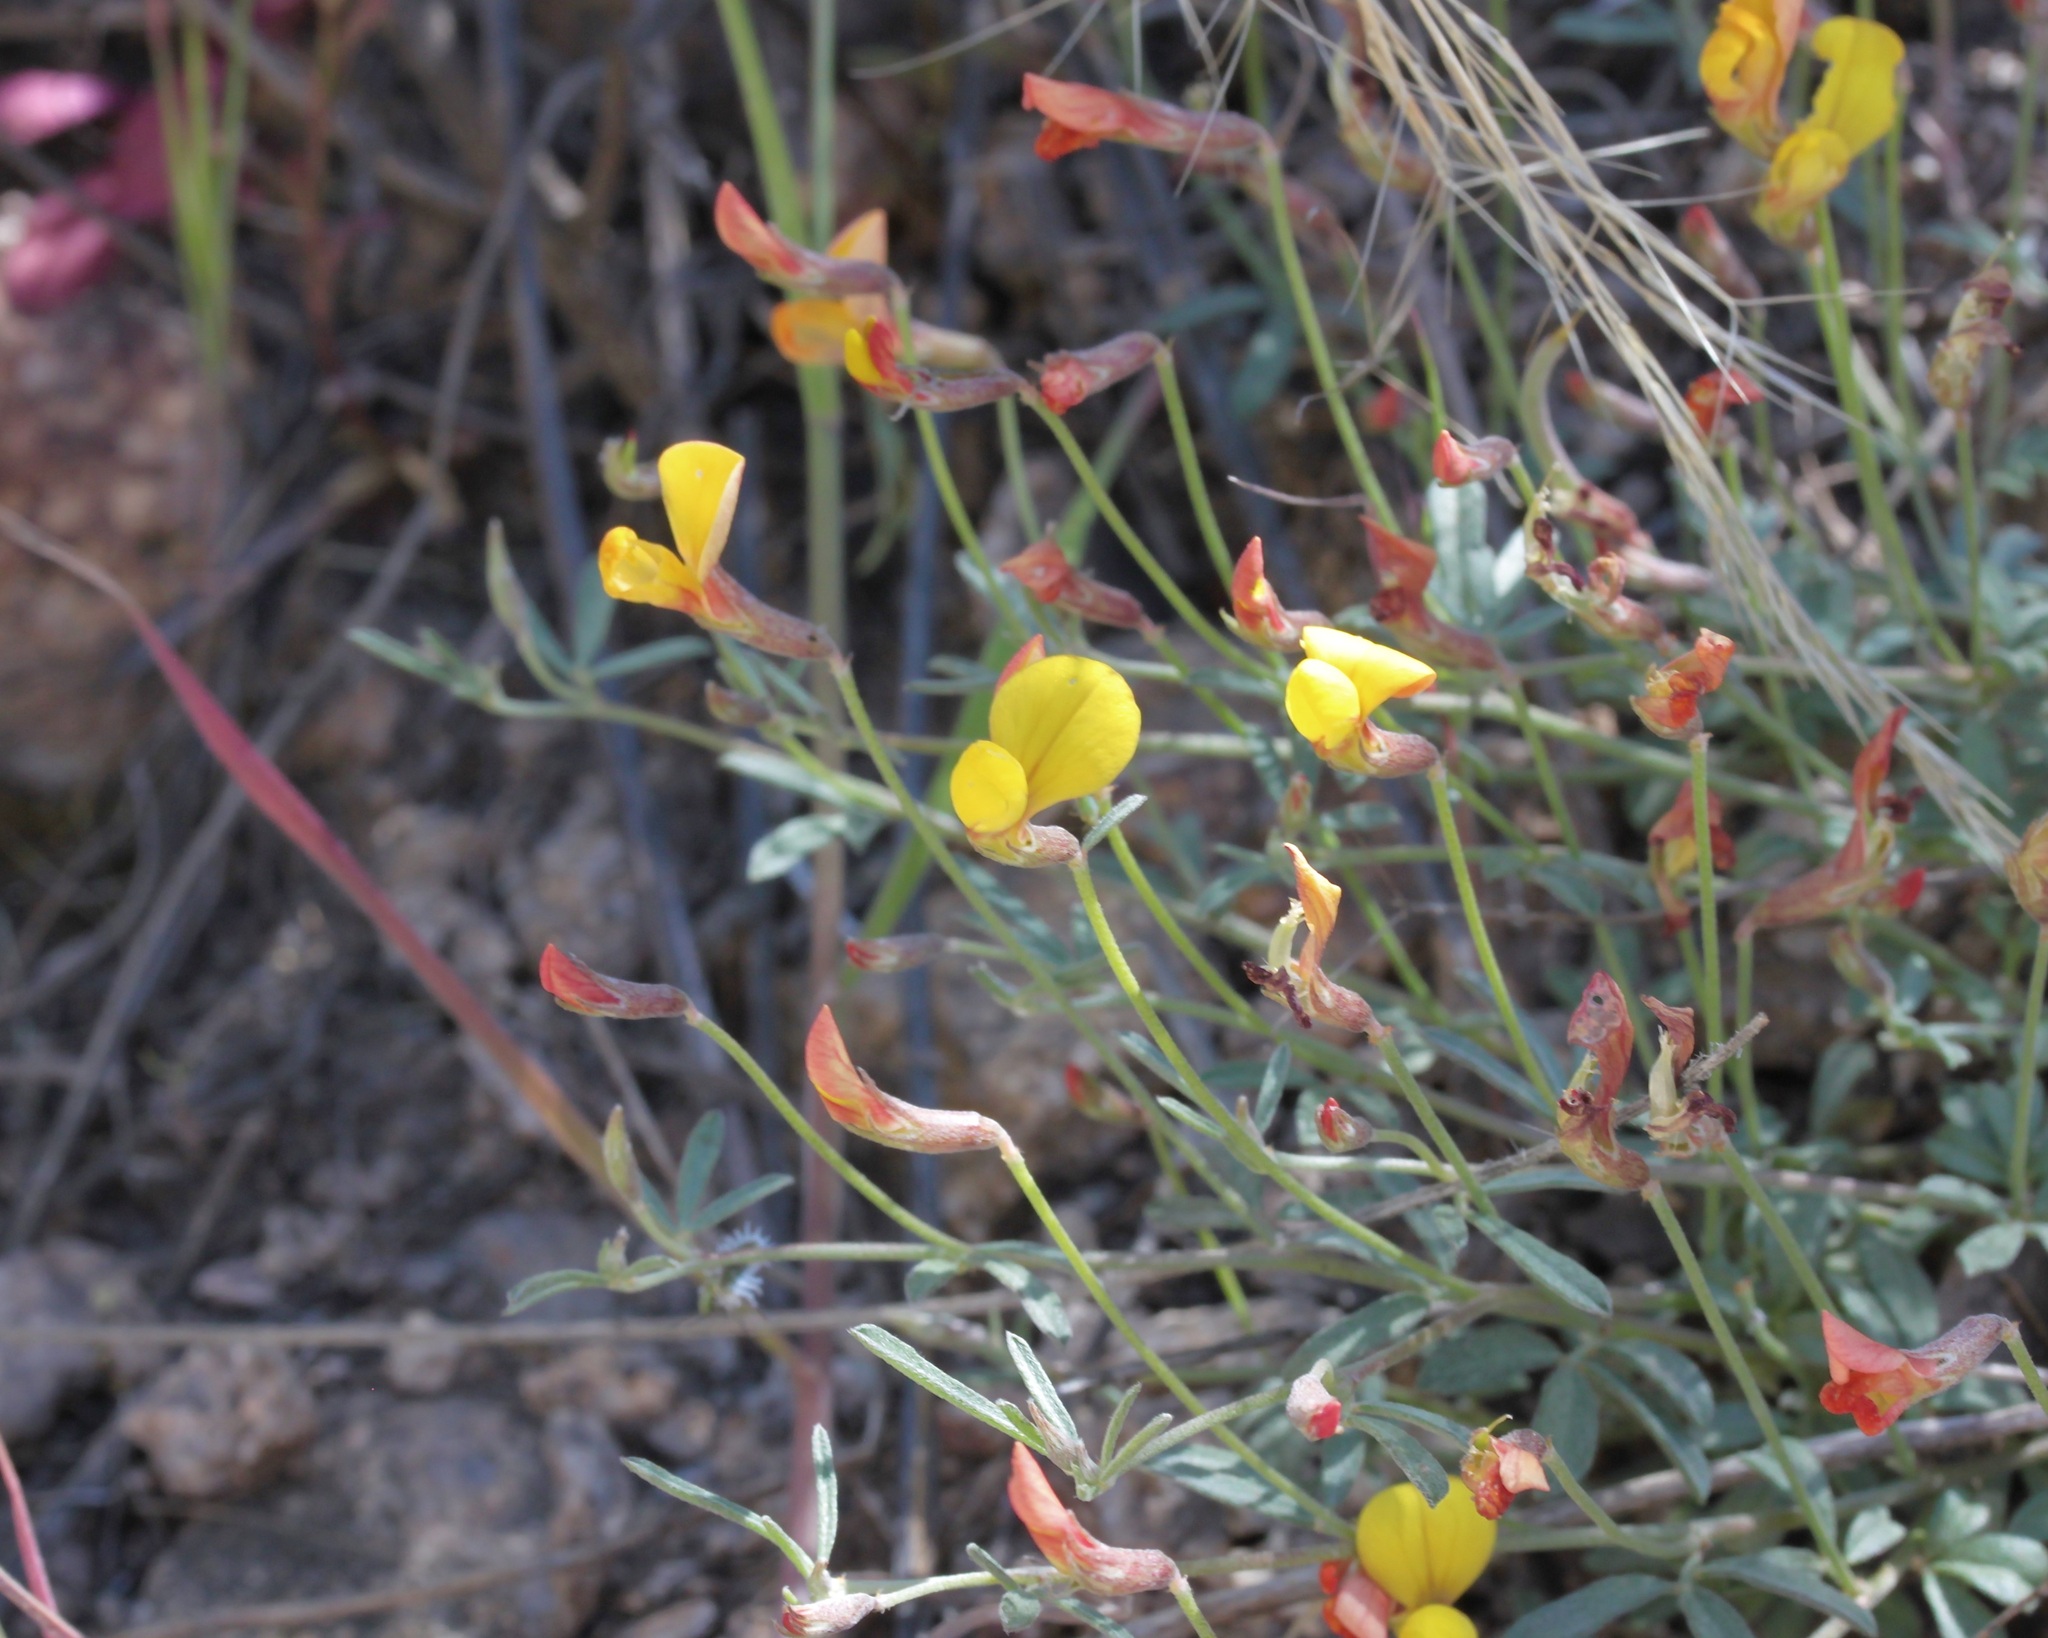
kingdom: Plantae
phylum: Tracheophyta
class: Magnoliopsida
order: Fabales
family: Fabaceae
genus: Acmispon
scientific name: Acmispon oroboides
